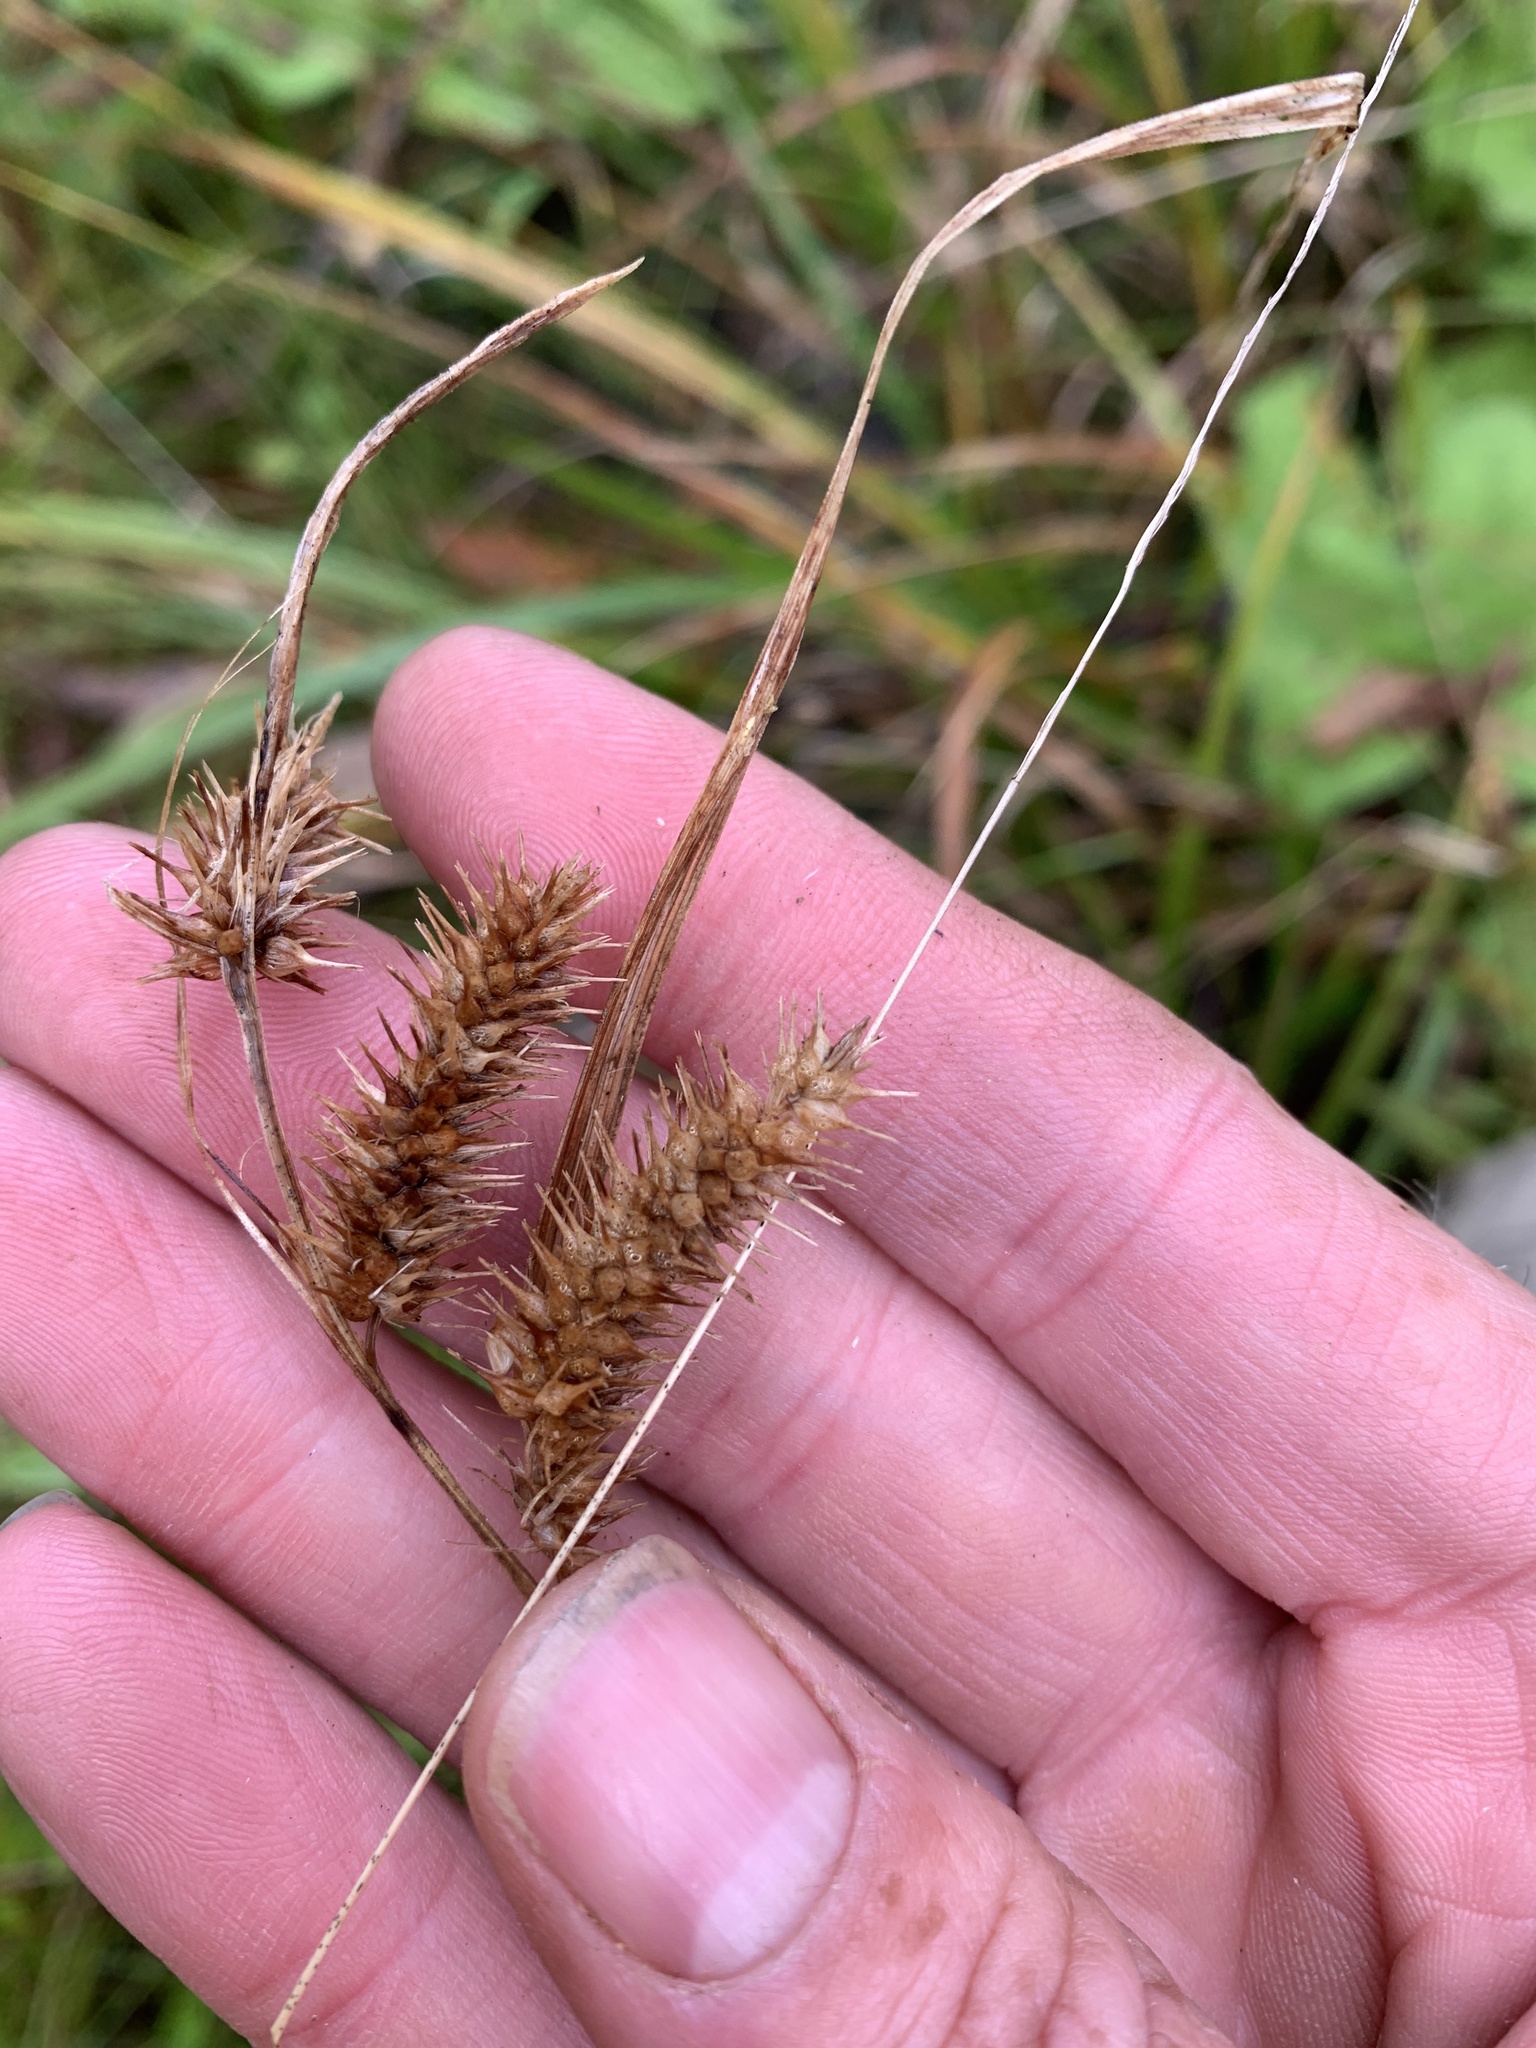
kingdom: Plantae
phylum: Tracheophyta
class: Liliopsida
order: Poales
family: Cyperaceae
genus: Carex
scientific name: Carex hystericina
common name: Bottlebrush sedge
